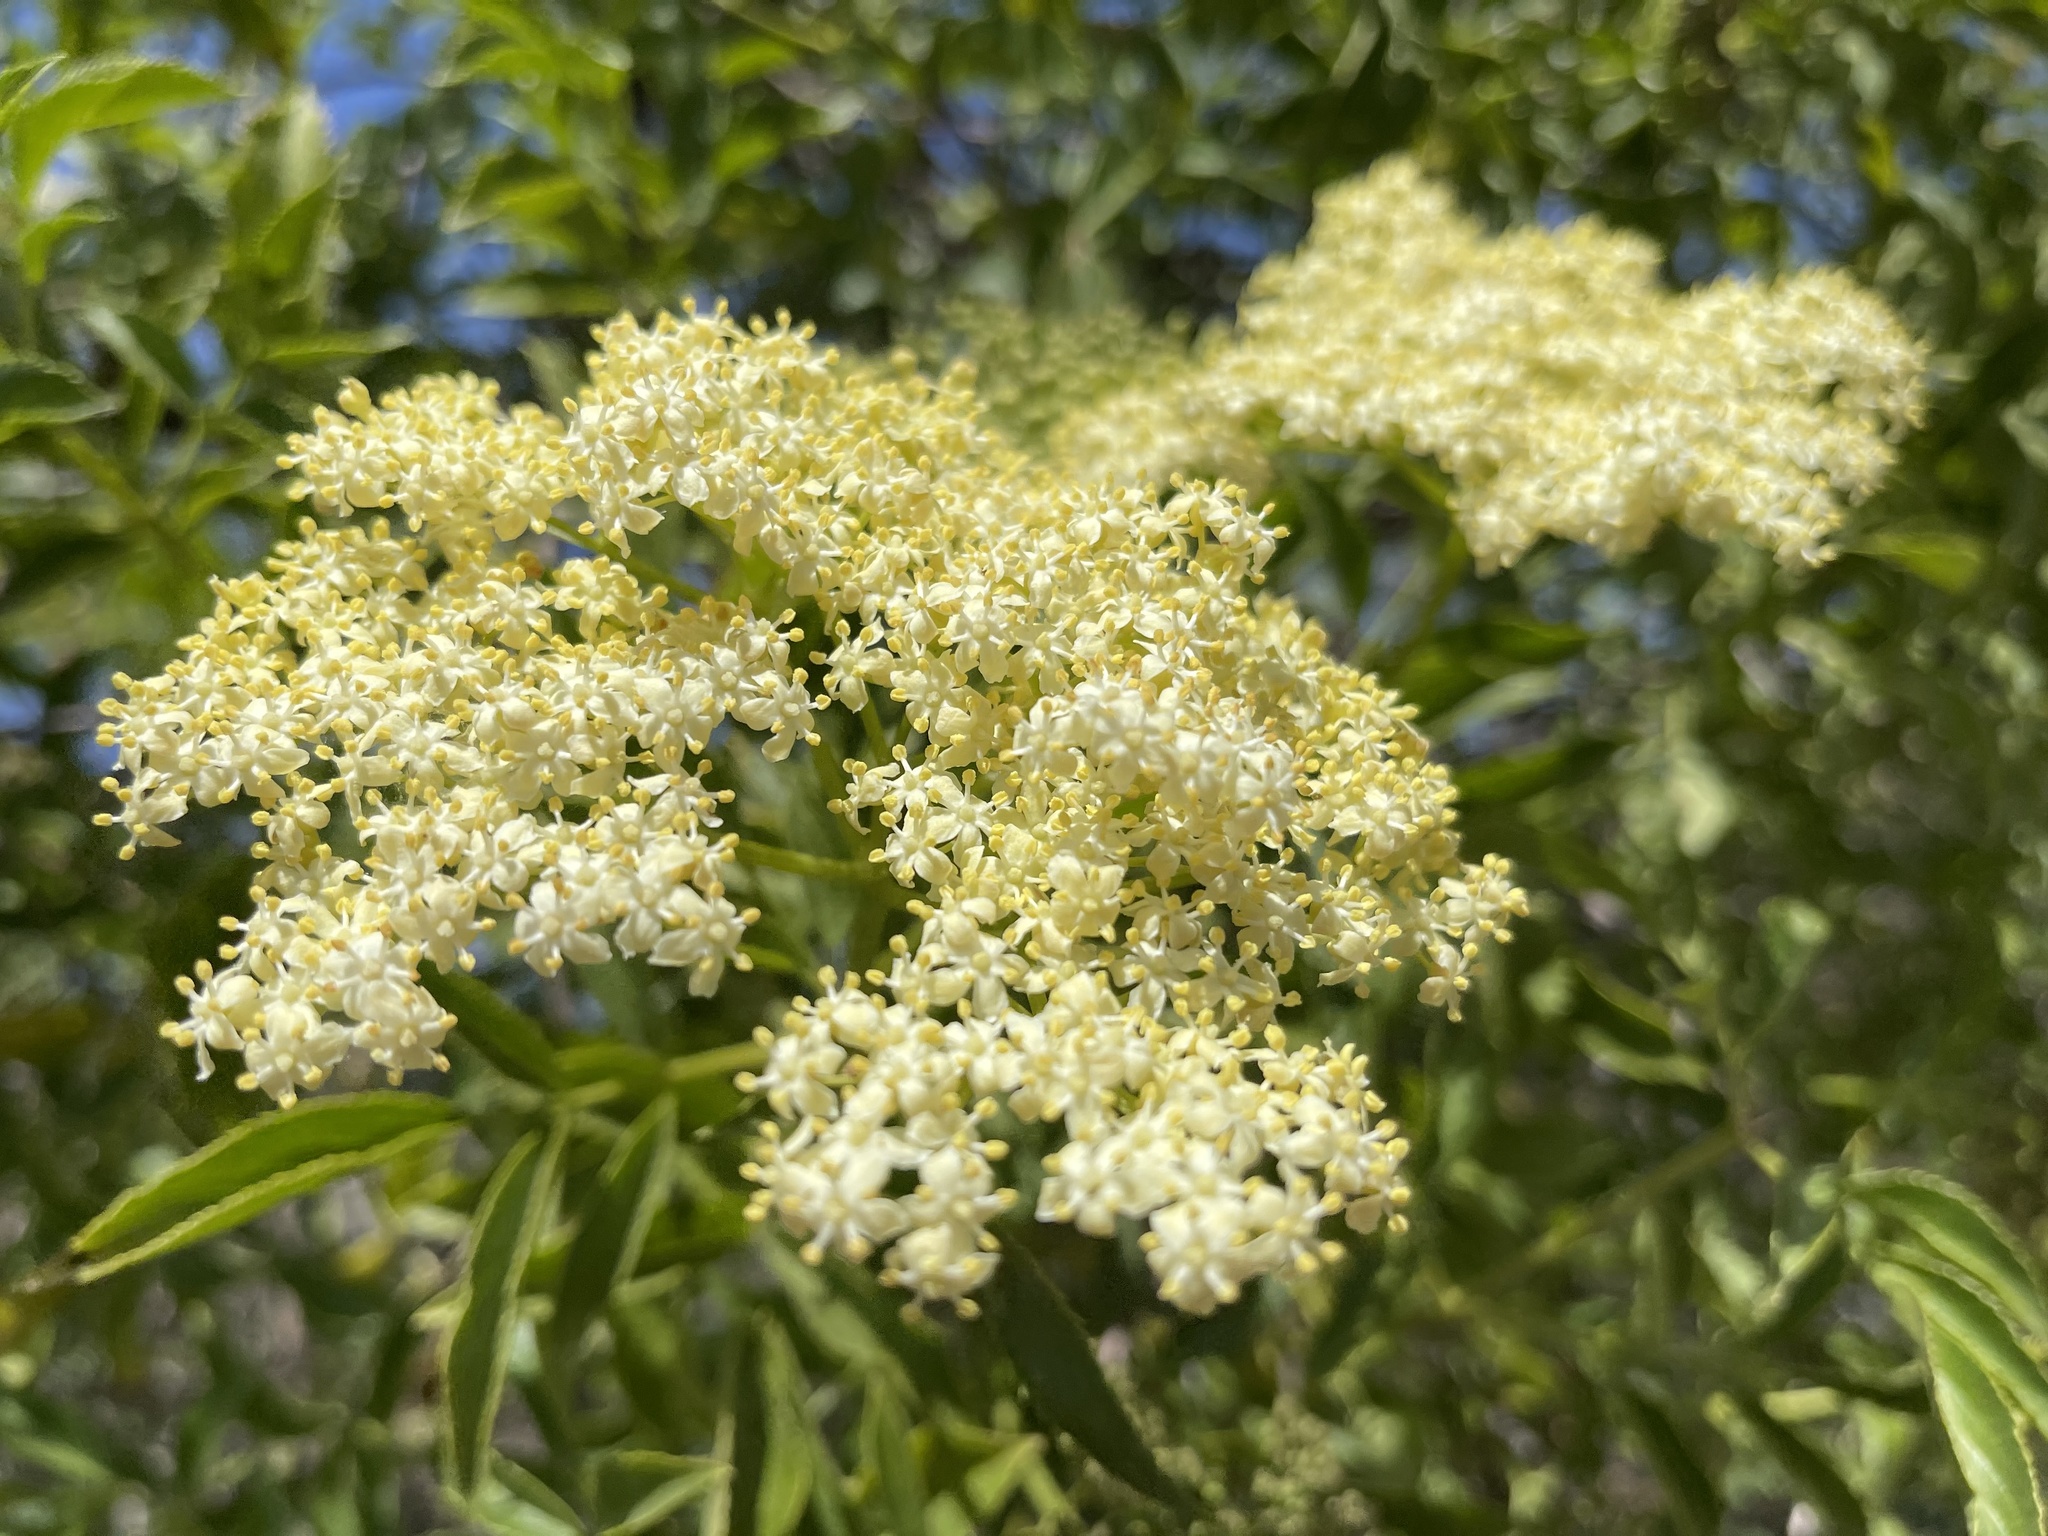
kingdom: Plantae
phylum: Tracheophyta
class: Magnoliopsida
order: Dipsacales
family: Viburnaceae
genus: Sambucus
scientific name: Sambucus cerulea
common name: Blue elder
